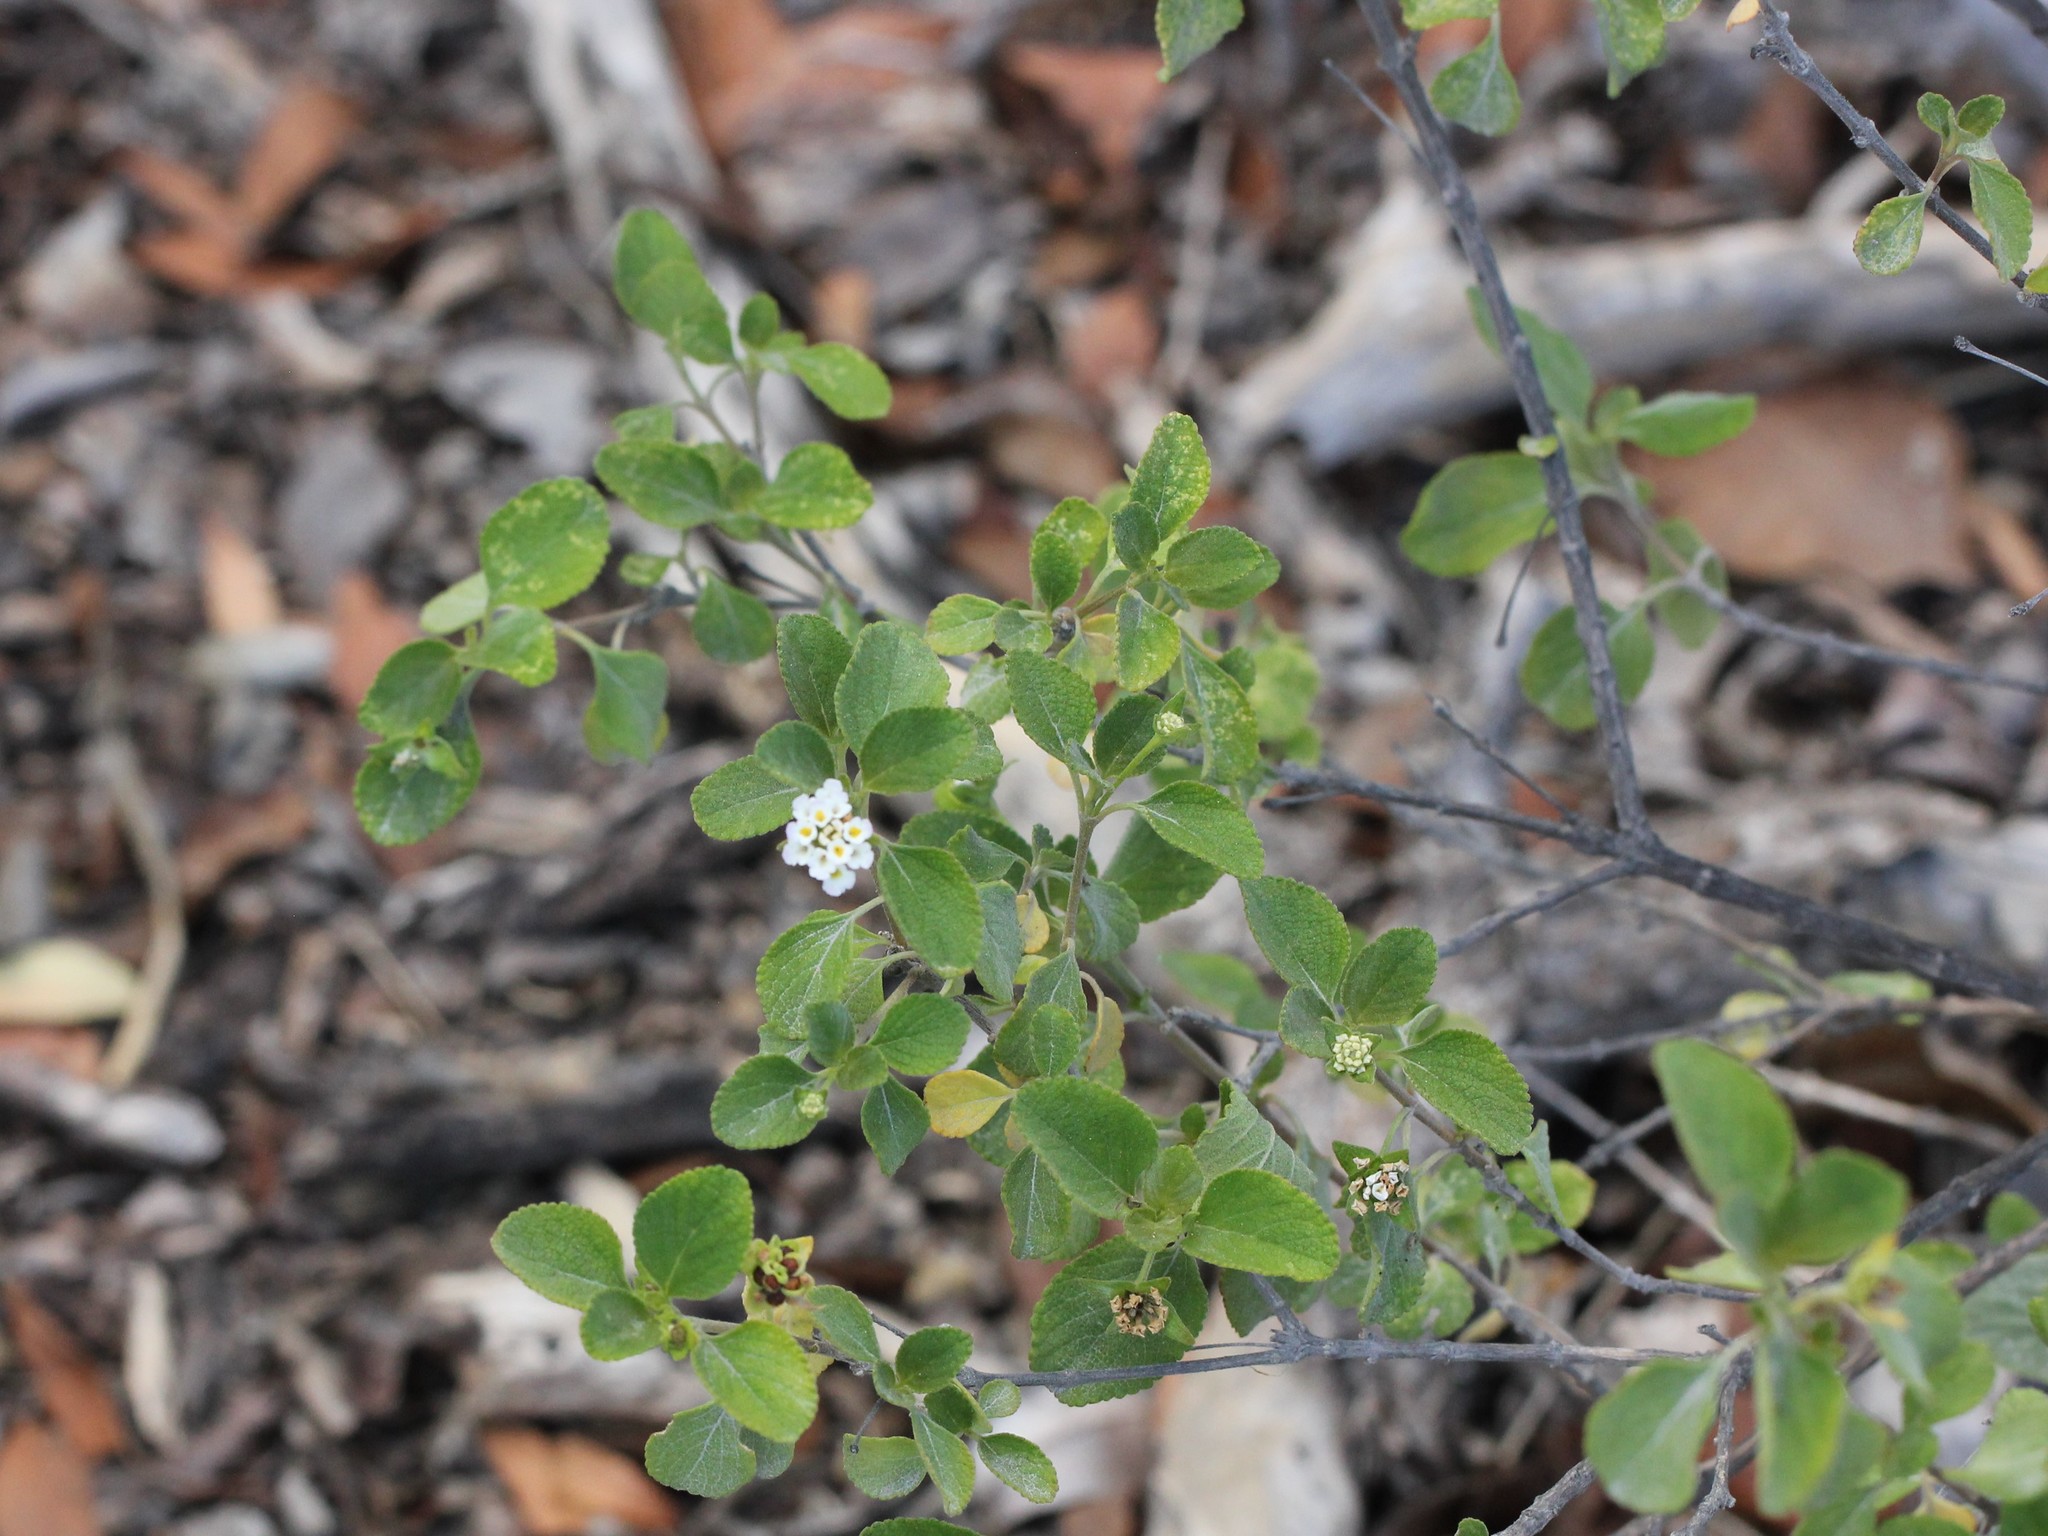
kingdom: Plantae
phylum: Tracheophyta
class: Magnoliopsida
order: Lamiales
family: Verbenaceae
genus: Lantana
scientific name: Lantana involucrata
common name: Black sage
